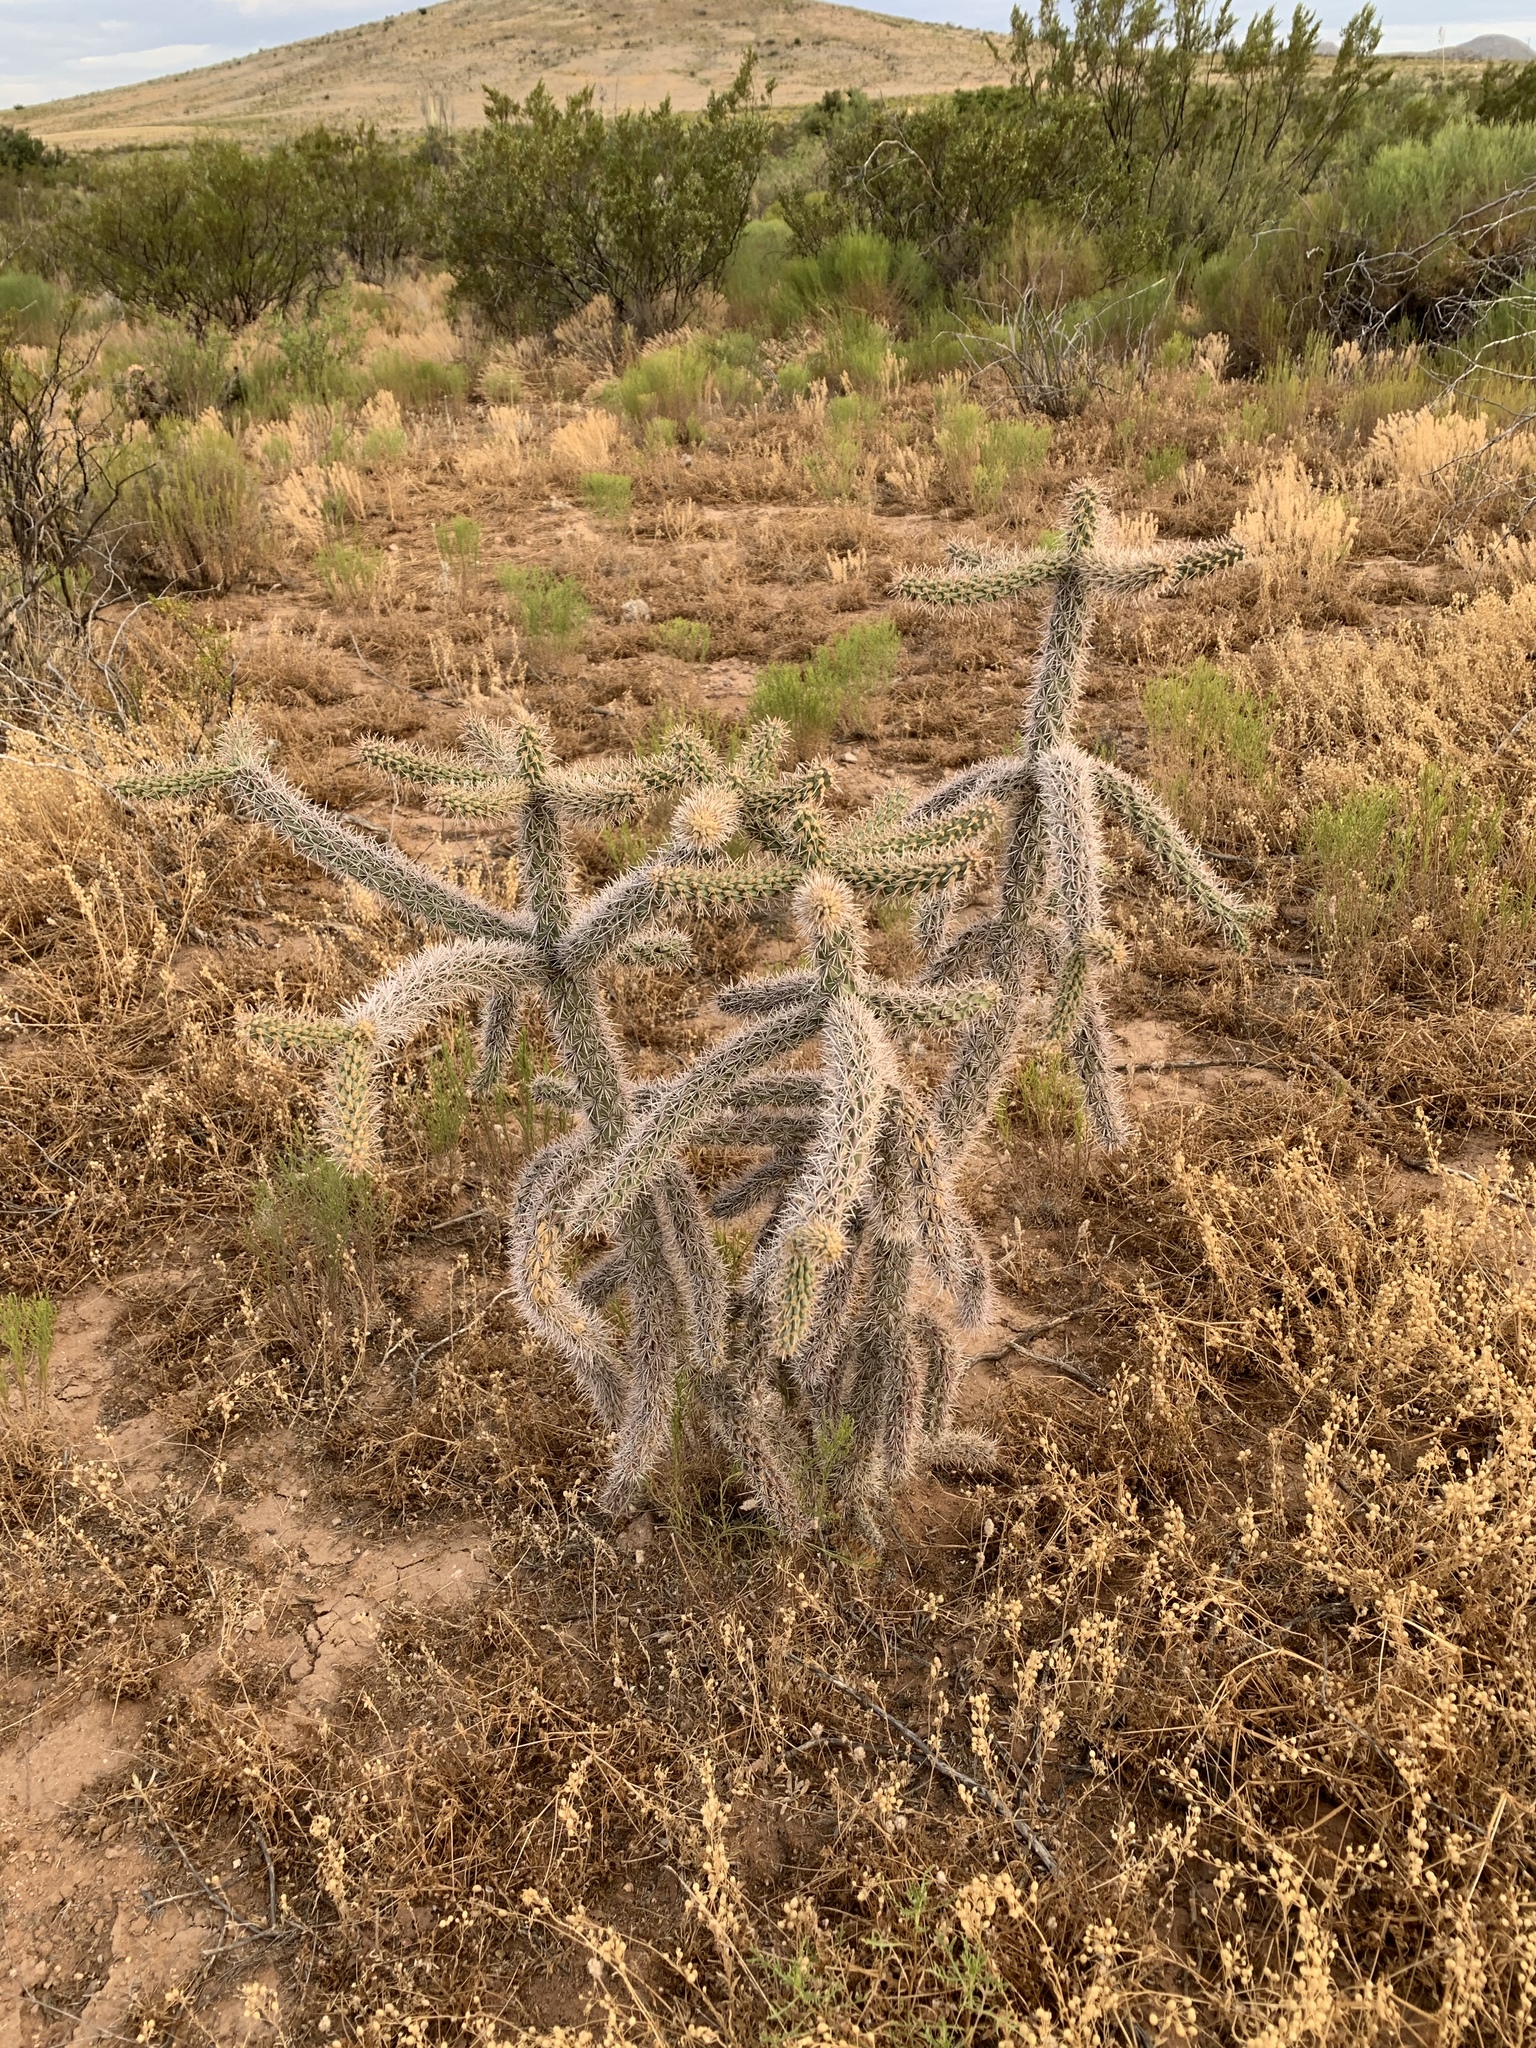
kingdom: Plantae
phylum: Tracheophyta
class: Magnoliopsida
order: Caryophyllales
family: Cactaceae
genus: Cylindropuntia
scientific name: Cylindropuntia imbricata
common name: Candelabrum cactus
